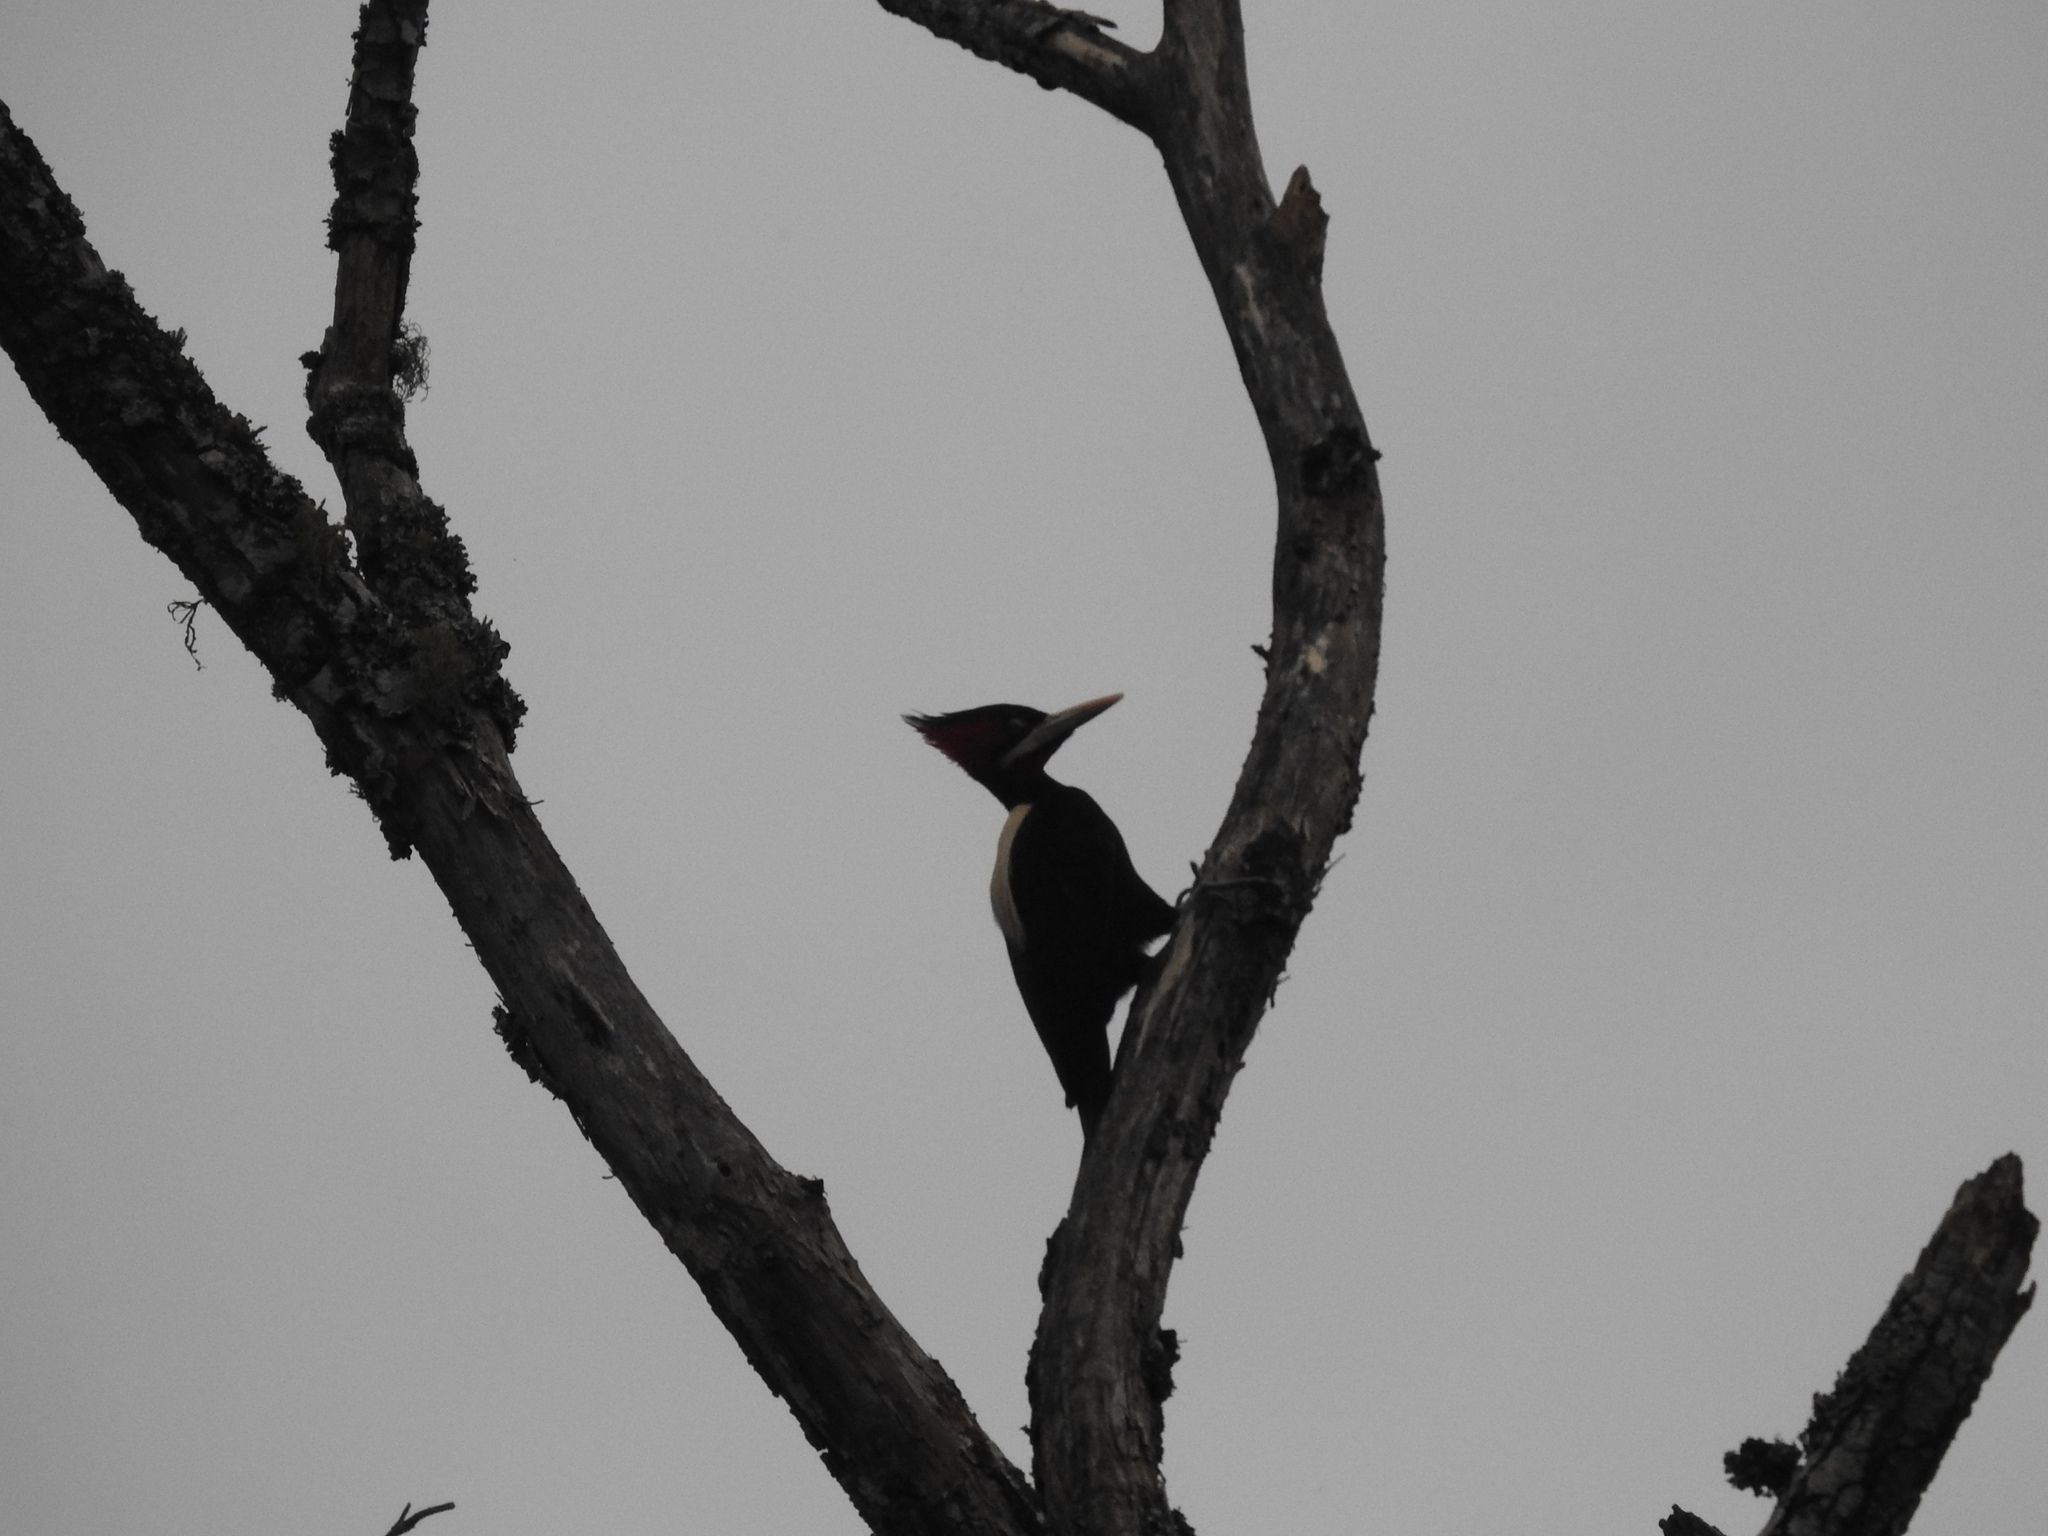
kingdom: Animalia
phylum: Chordata
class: Aves
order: Piciformes
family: Picidae
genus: Campephilus
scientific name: Campephilus leucopogon
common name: Cream-backed woodpecker
